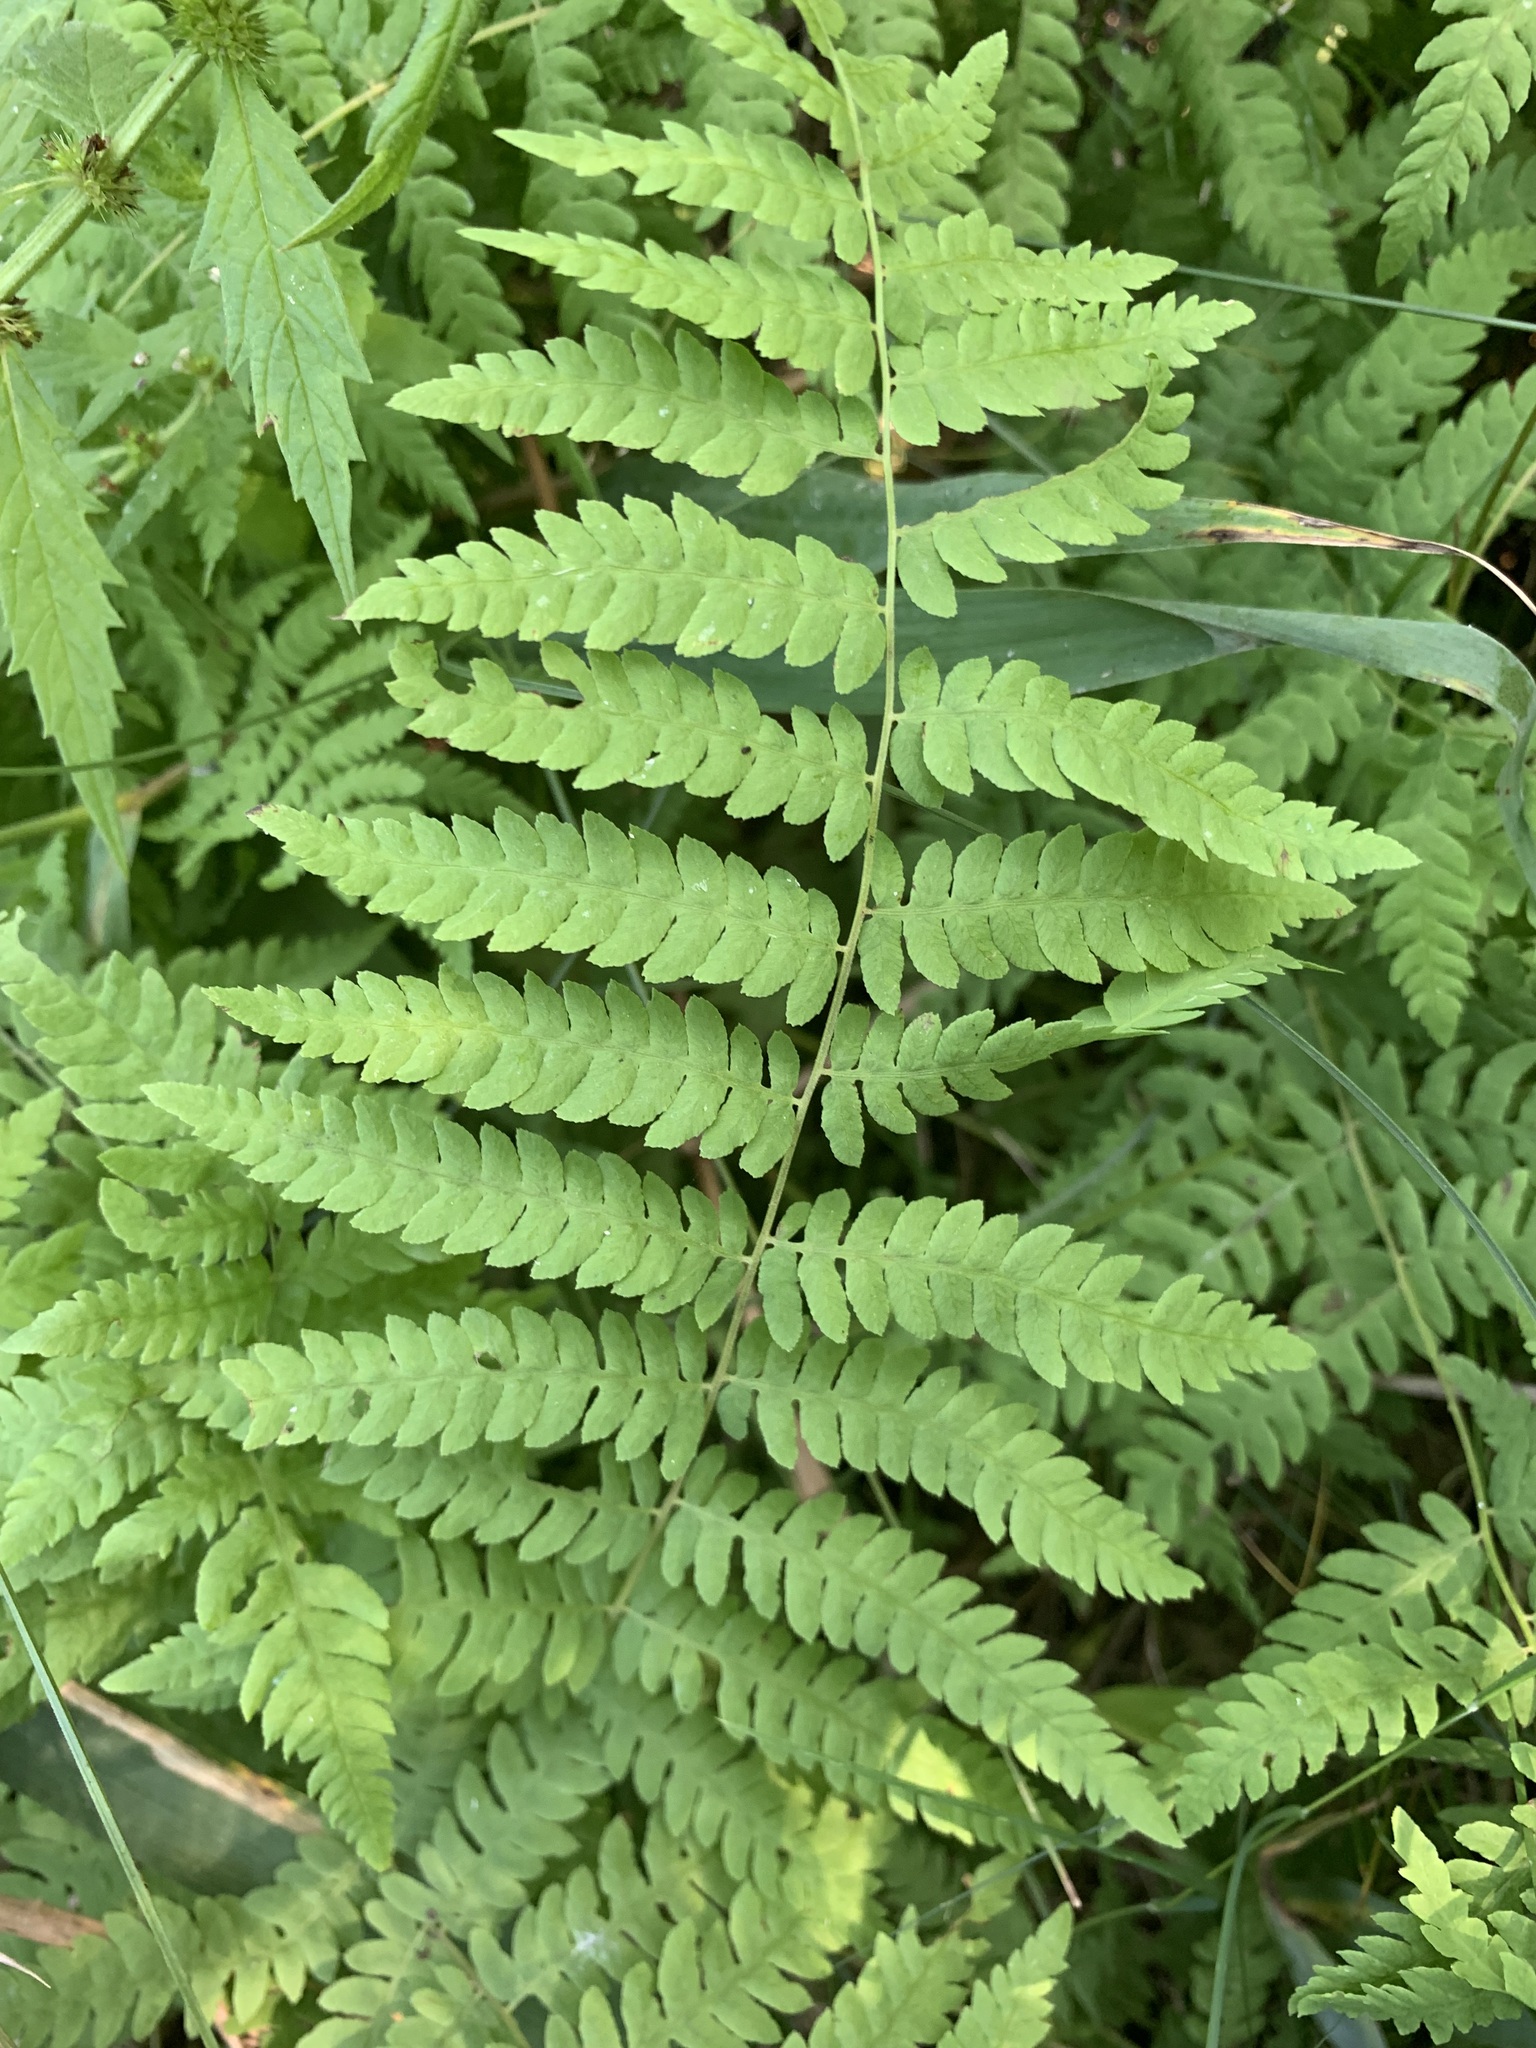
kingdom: Plantae
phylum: Tracheophyta
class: Polypodiopsida
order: Polypodiales
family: Thelypteridaceae
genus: Thelypteris
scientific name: Thelypteris palustris
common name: Marsh fern
